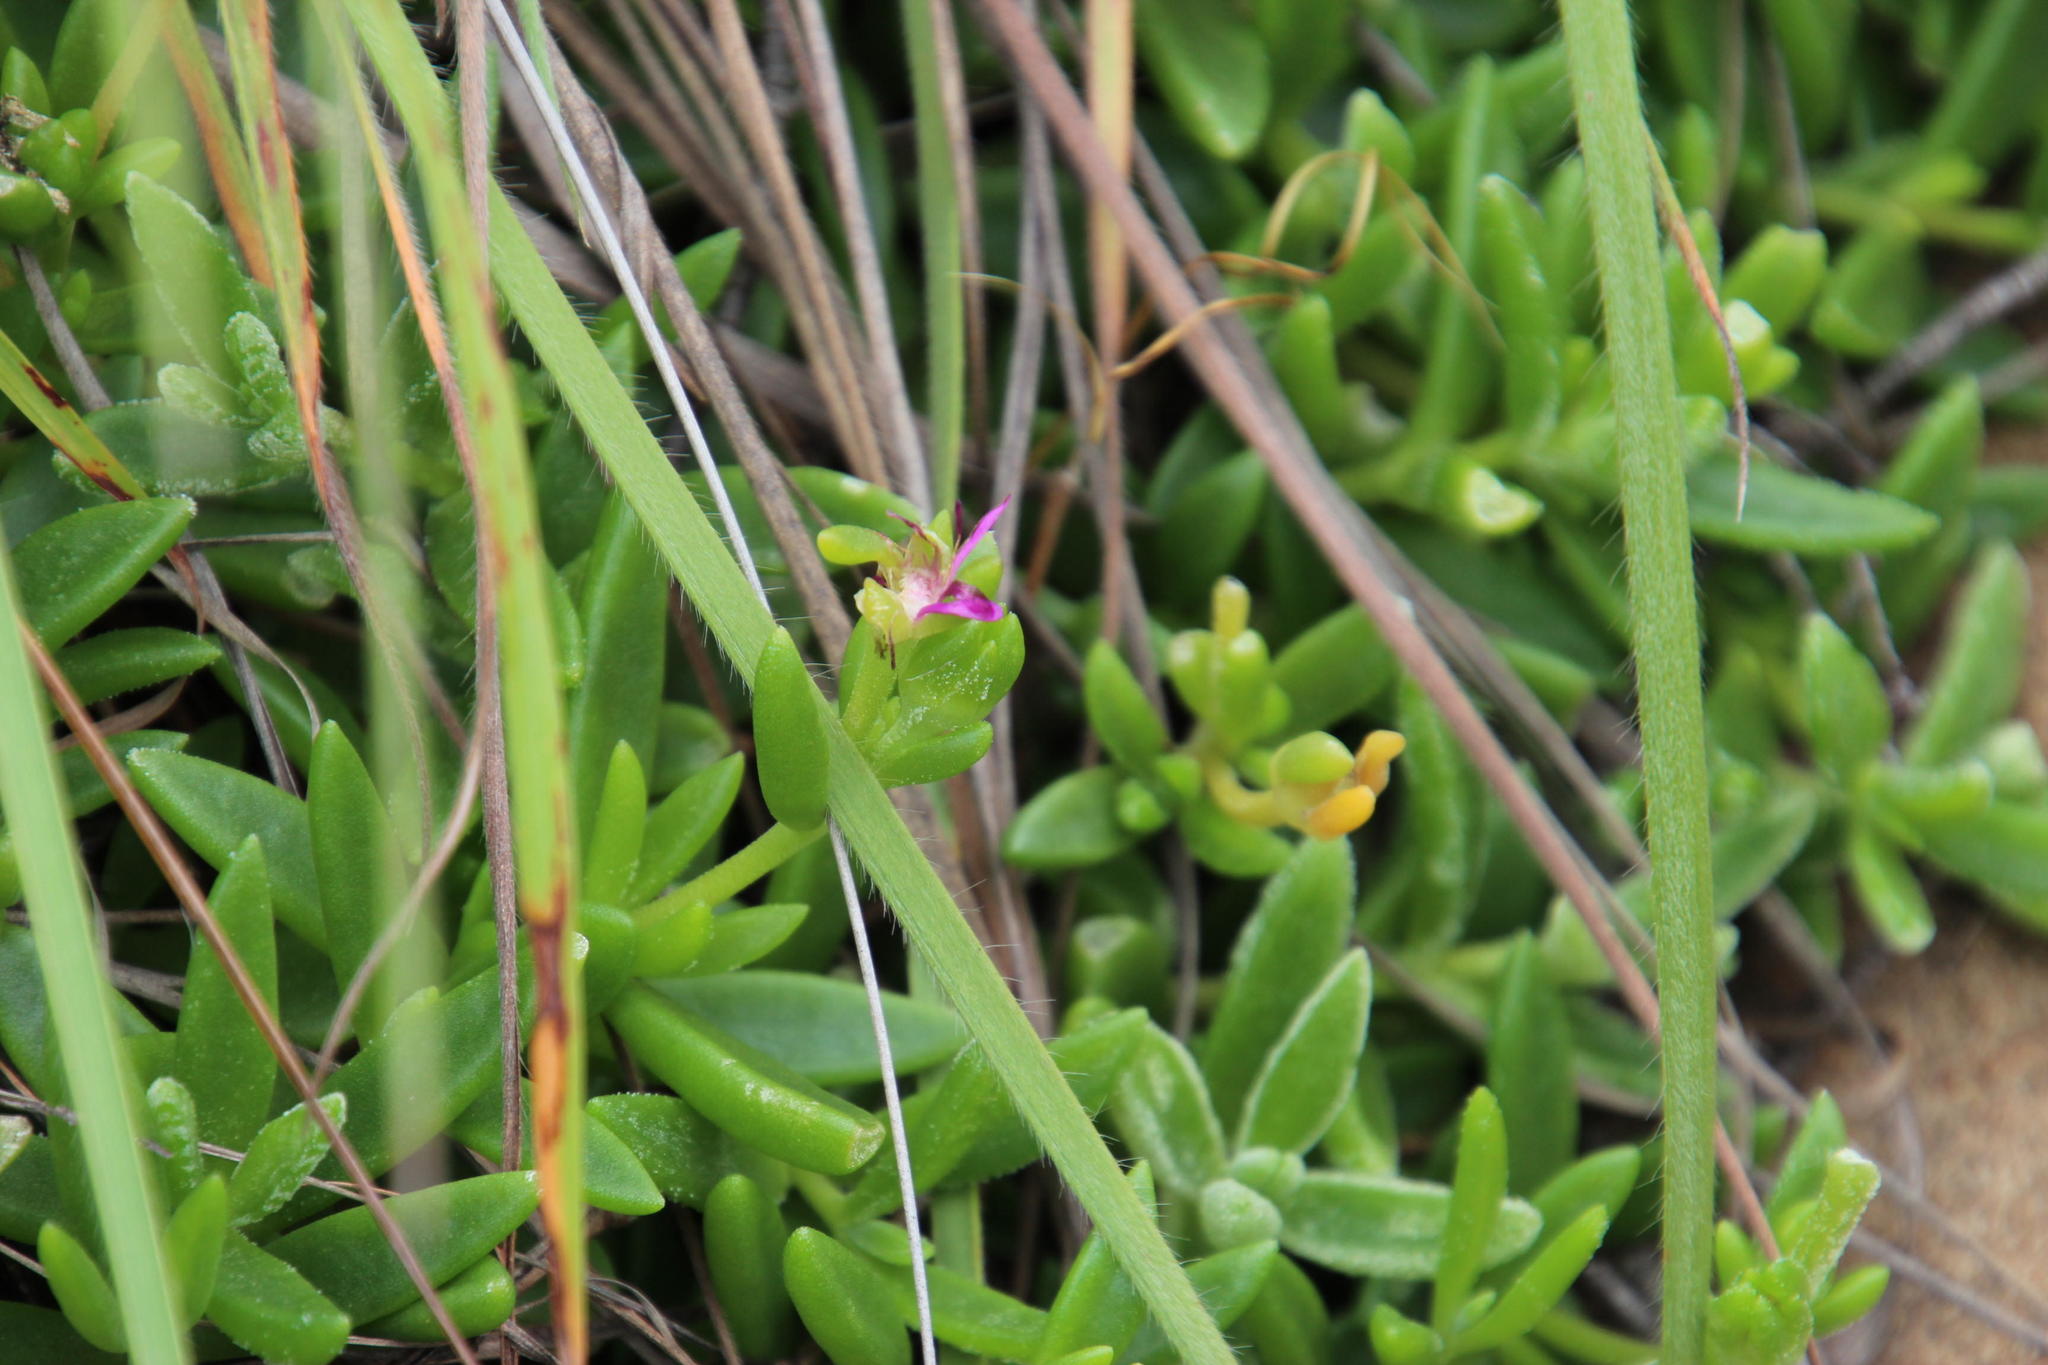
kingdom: Plantae
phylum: Tracheophyta
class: Magnoliopsida
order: Caryophyllales
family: Aizoaceae
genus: Delosperma
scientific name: Delosperma lavisiae
